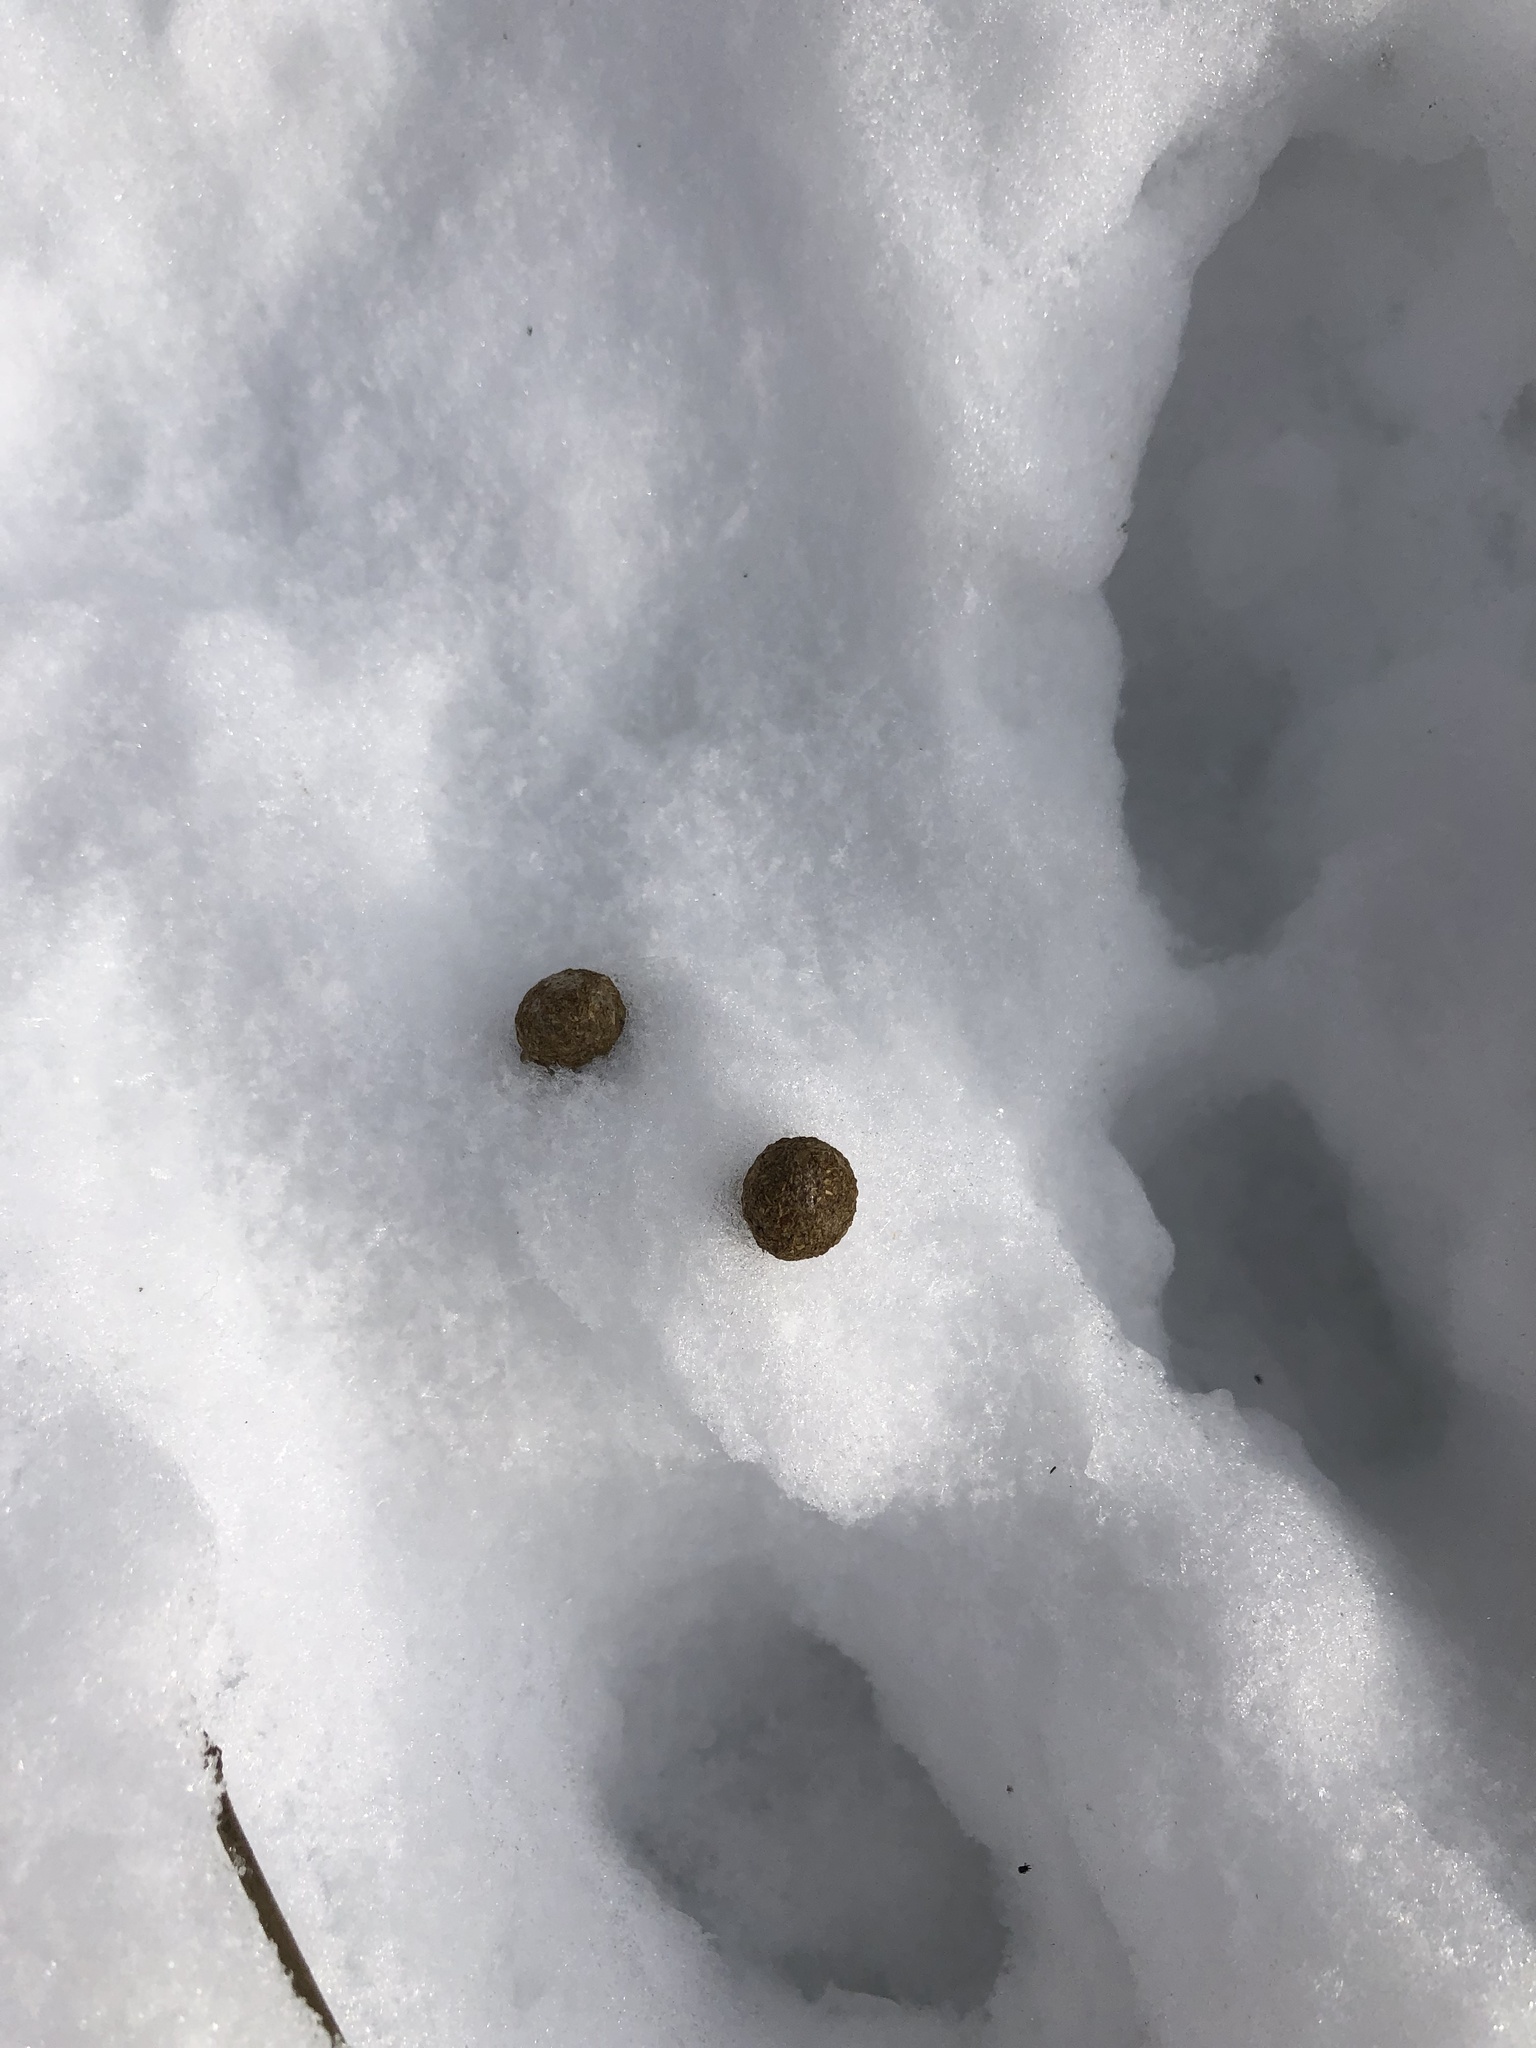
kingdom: Animalia
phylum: Chordata
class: Mammalia
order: Lagomorpha
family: Leporidae
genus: Sylvilagus
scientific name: Sylvilagus floridanus
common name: Eastern cottontail
